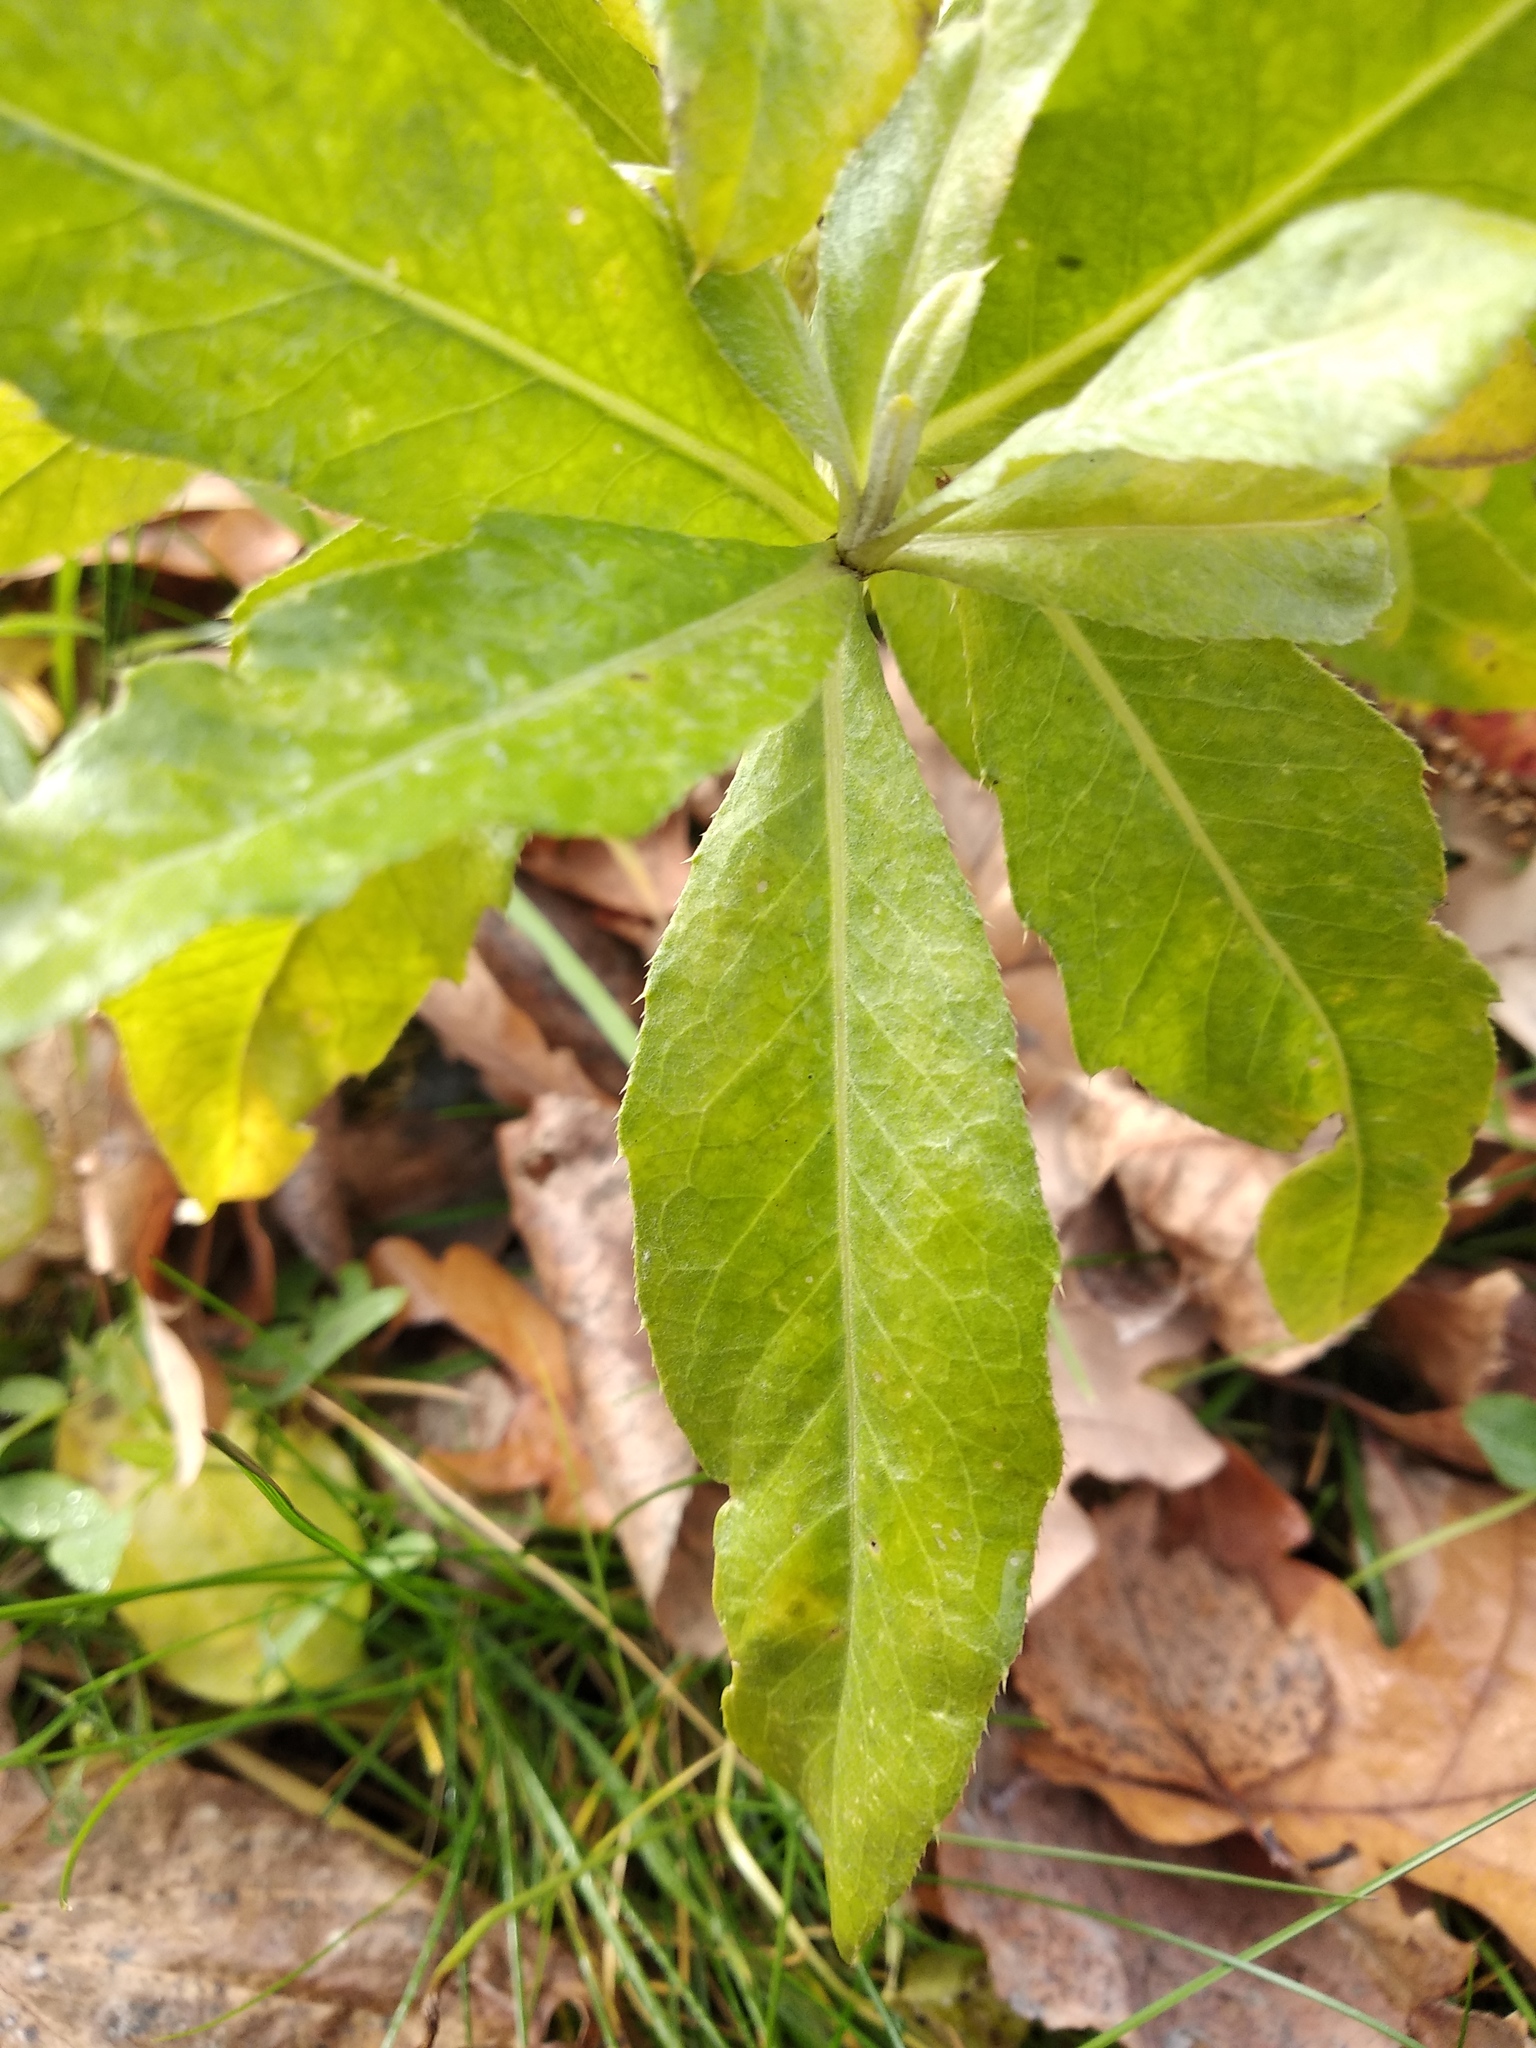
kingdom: Plantae
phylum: Tracheophyta
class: Magnoliopsida
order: Asterales
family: Asteraceae
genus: Cirsium
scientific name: Cirsium arvense
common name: Creeping thistle
